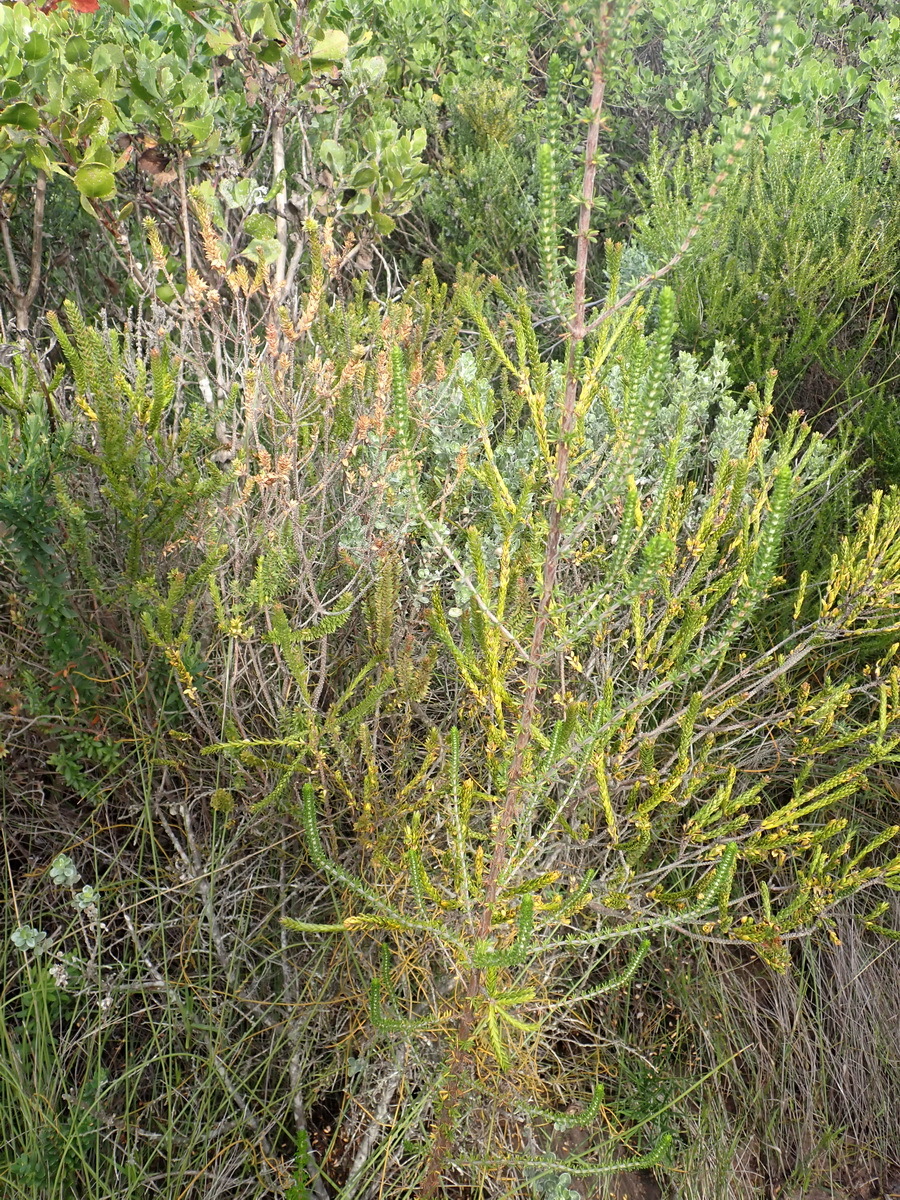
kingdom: Plantae
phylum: Tracheophyta
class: Magnoliopsida
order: Gentianales
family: Rubiaceae
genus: Anthospermum
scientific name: Anthospermum aethiopicum
